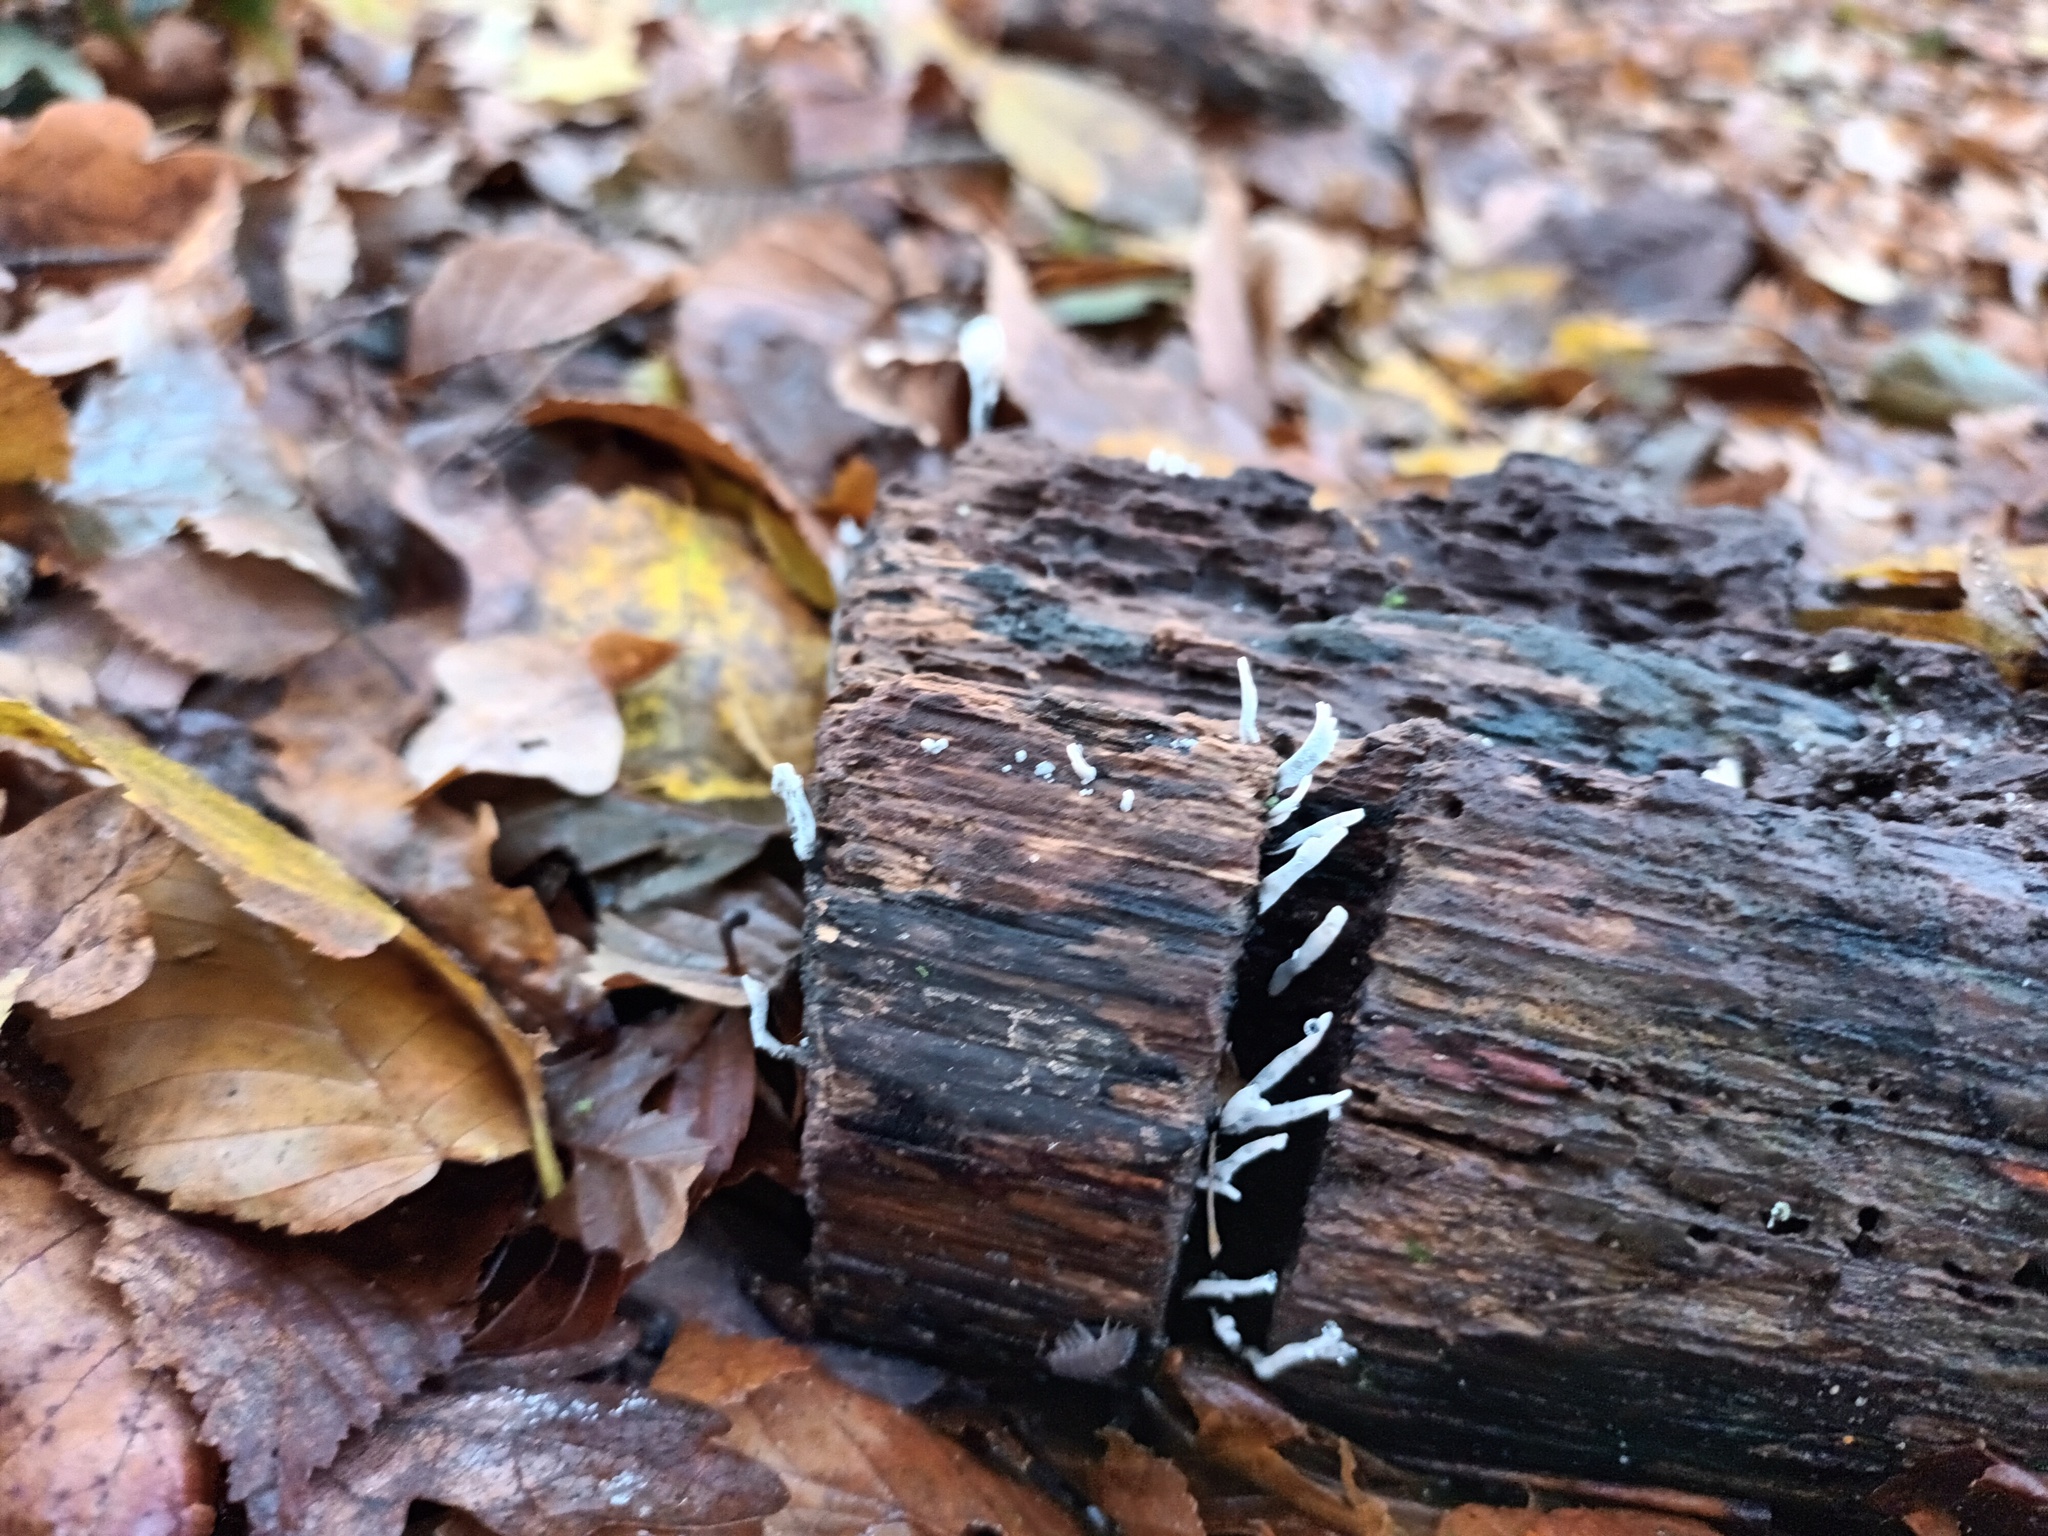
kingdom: Fungi
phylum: Ascomycota
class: Sordariomycetes
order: Xylariales
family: Xylariaceae
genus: Xylaria
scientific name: Xylaria hypoxylon
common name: Candle-snuff fungus
